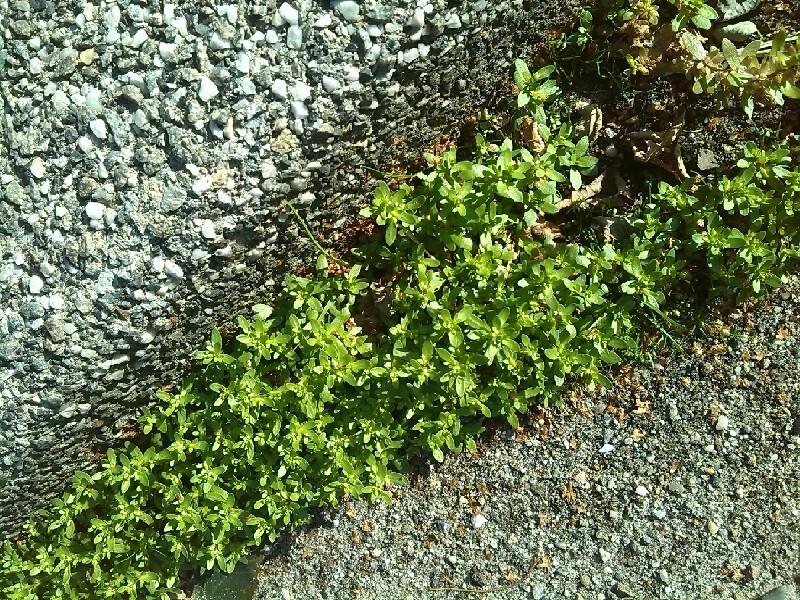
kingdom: Plantae
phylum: Tracheophyta
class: Magnoliopsida
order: Lamiales
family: Plantaginaceae
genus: Veronica
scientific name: Veronica peregrina
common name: Neckweed
